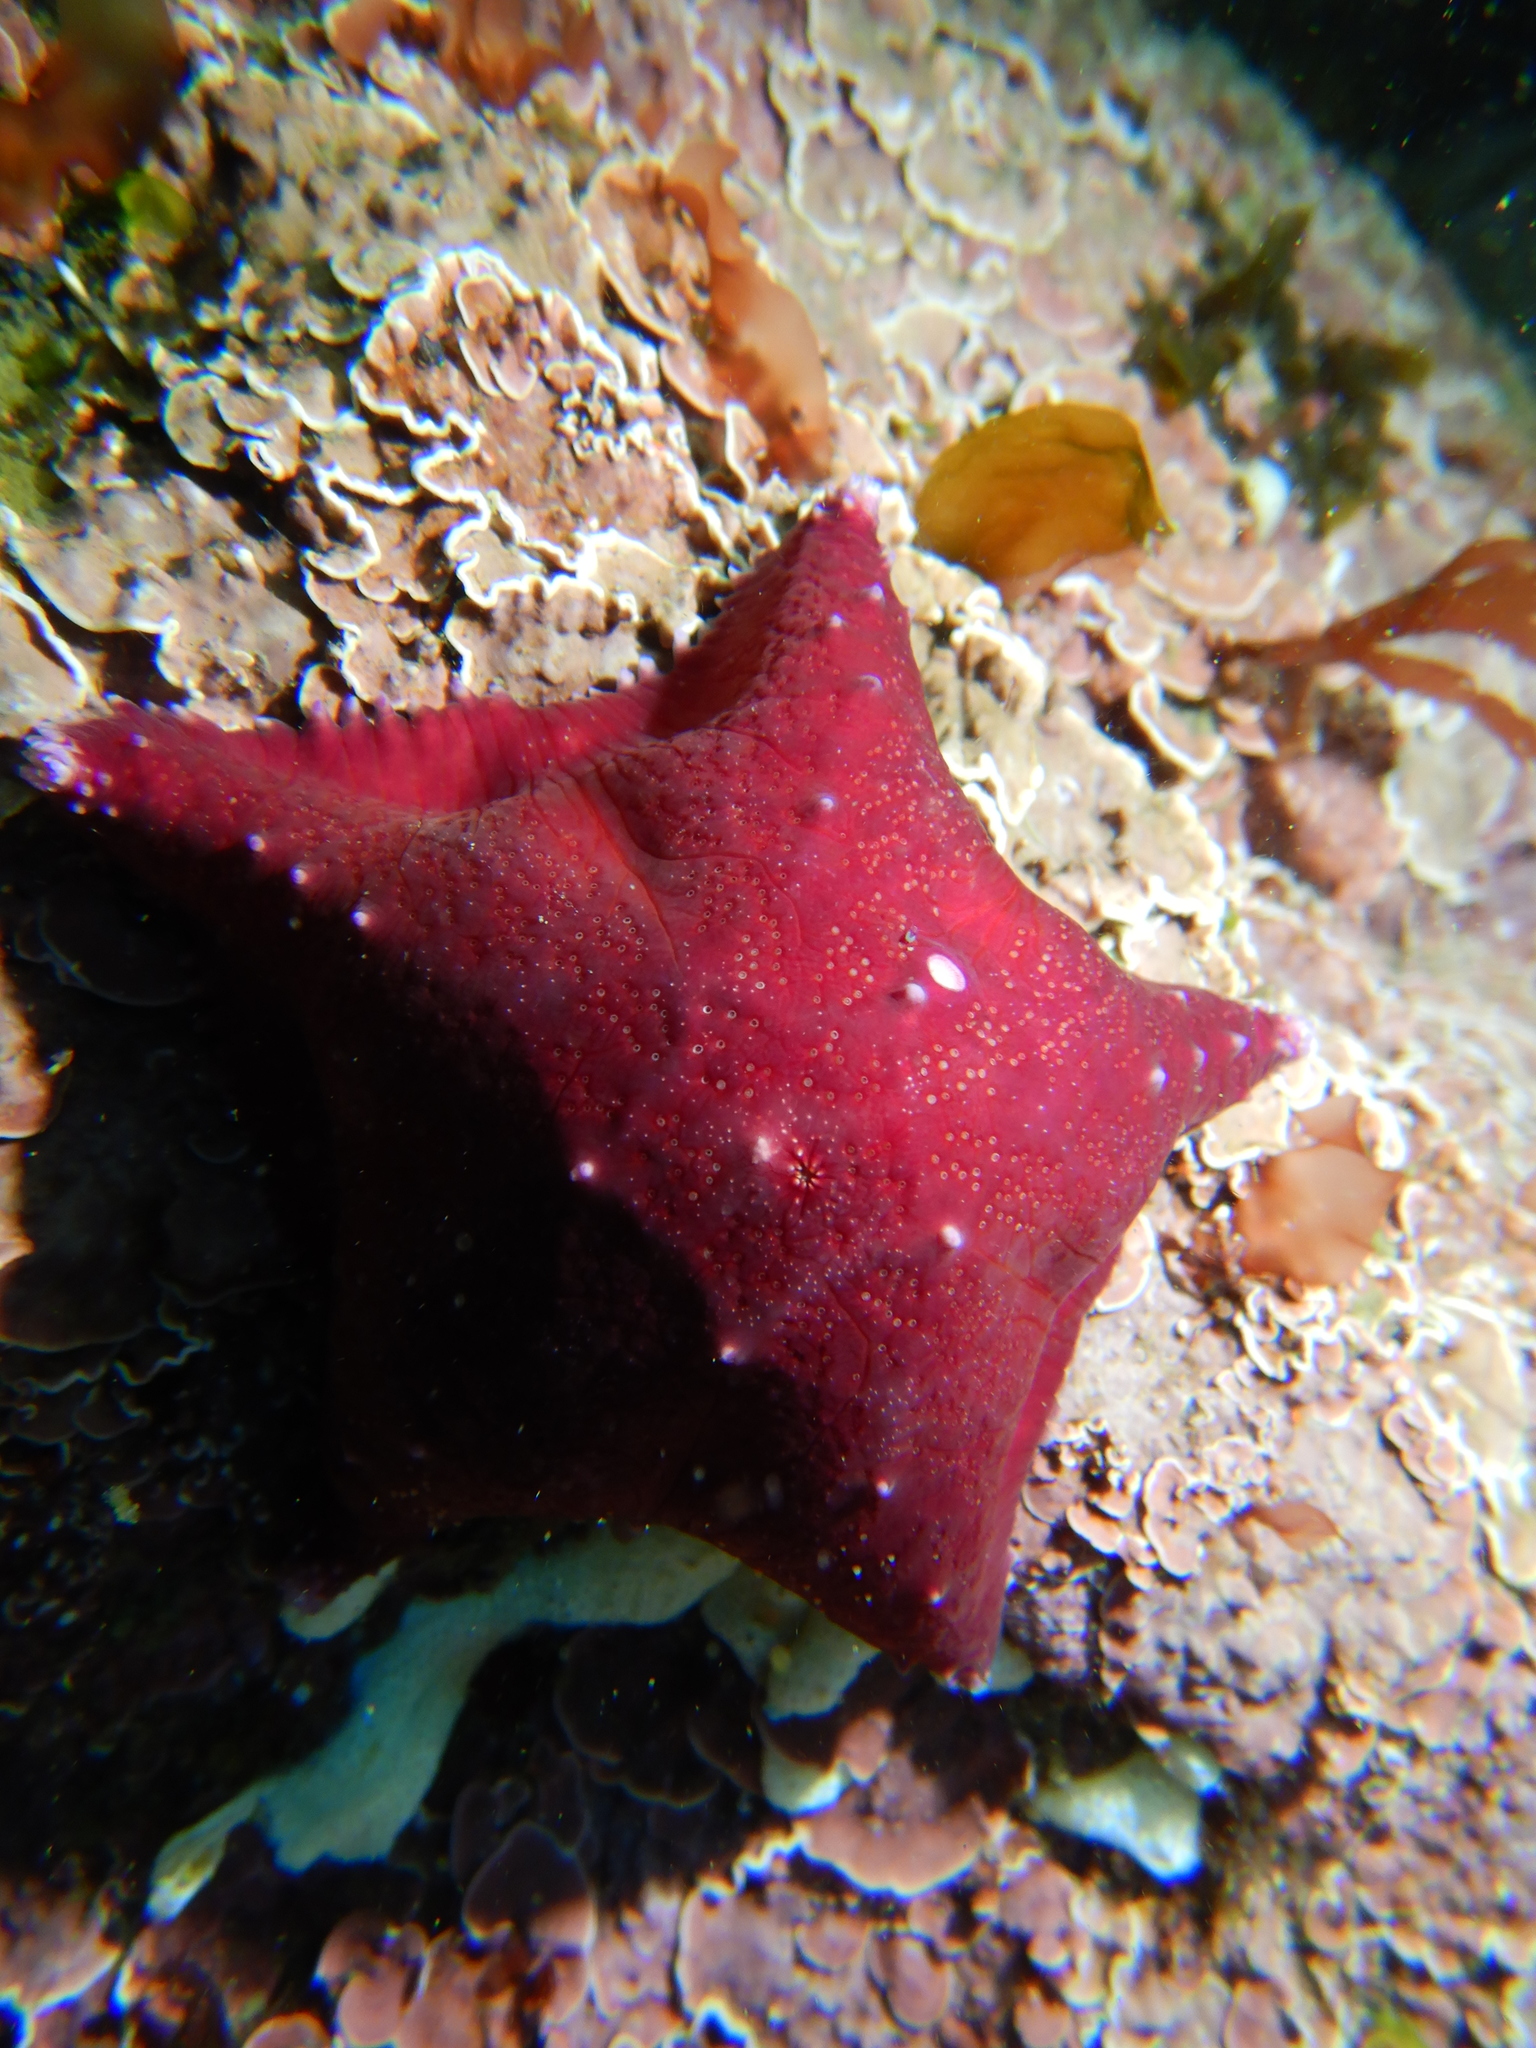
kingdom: Animalia
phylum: Echinodermata
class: Asteroidea
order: Valvatida
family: Poraniidae
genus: Glabraster
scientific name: Glabraster antarctica
